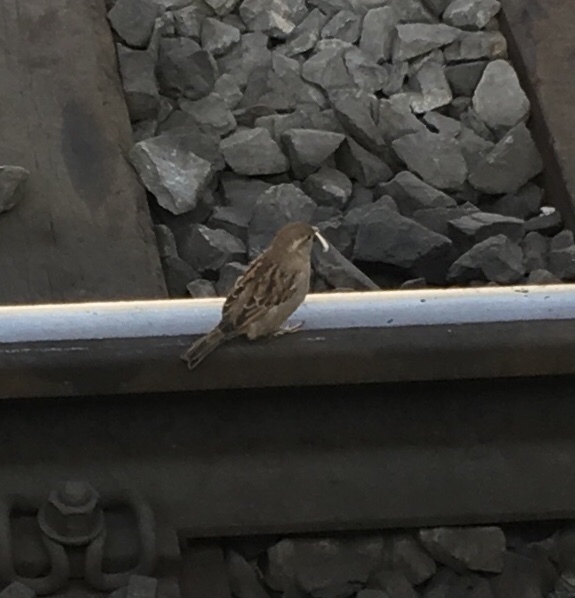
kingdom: Animalia
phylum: Chordata
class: Aves
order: Passeriformes
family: Passeridae
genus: Passer
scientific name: Passer domesticus
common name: House sparrow
